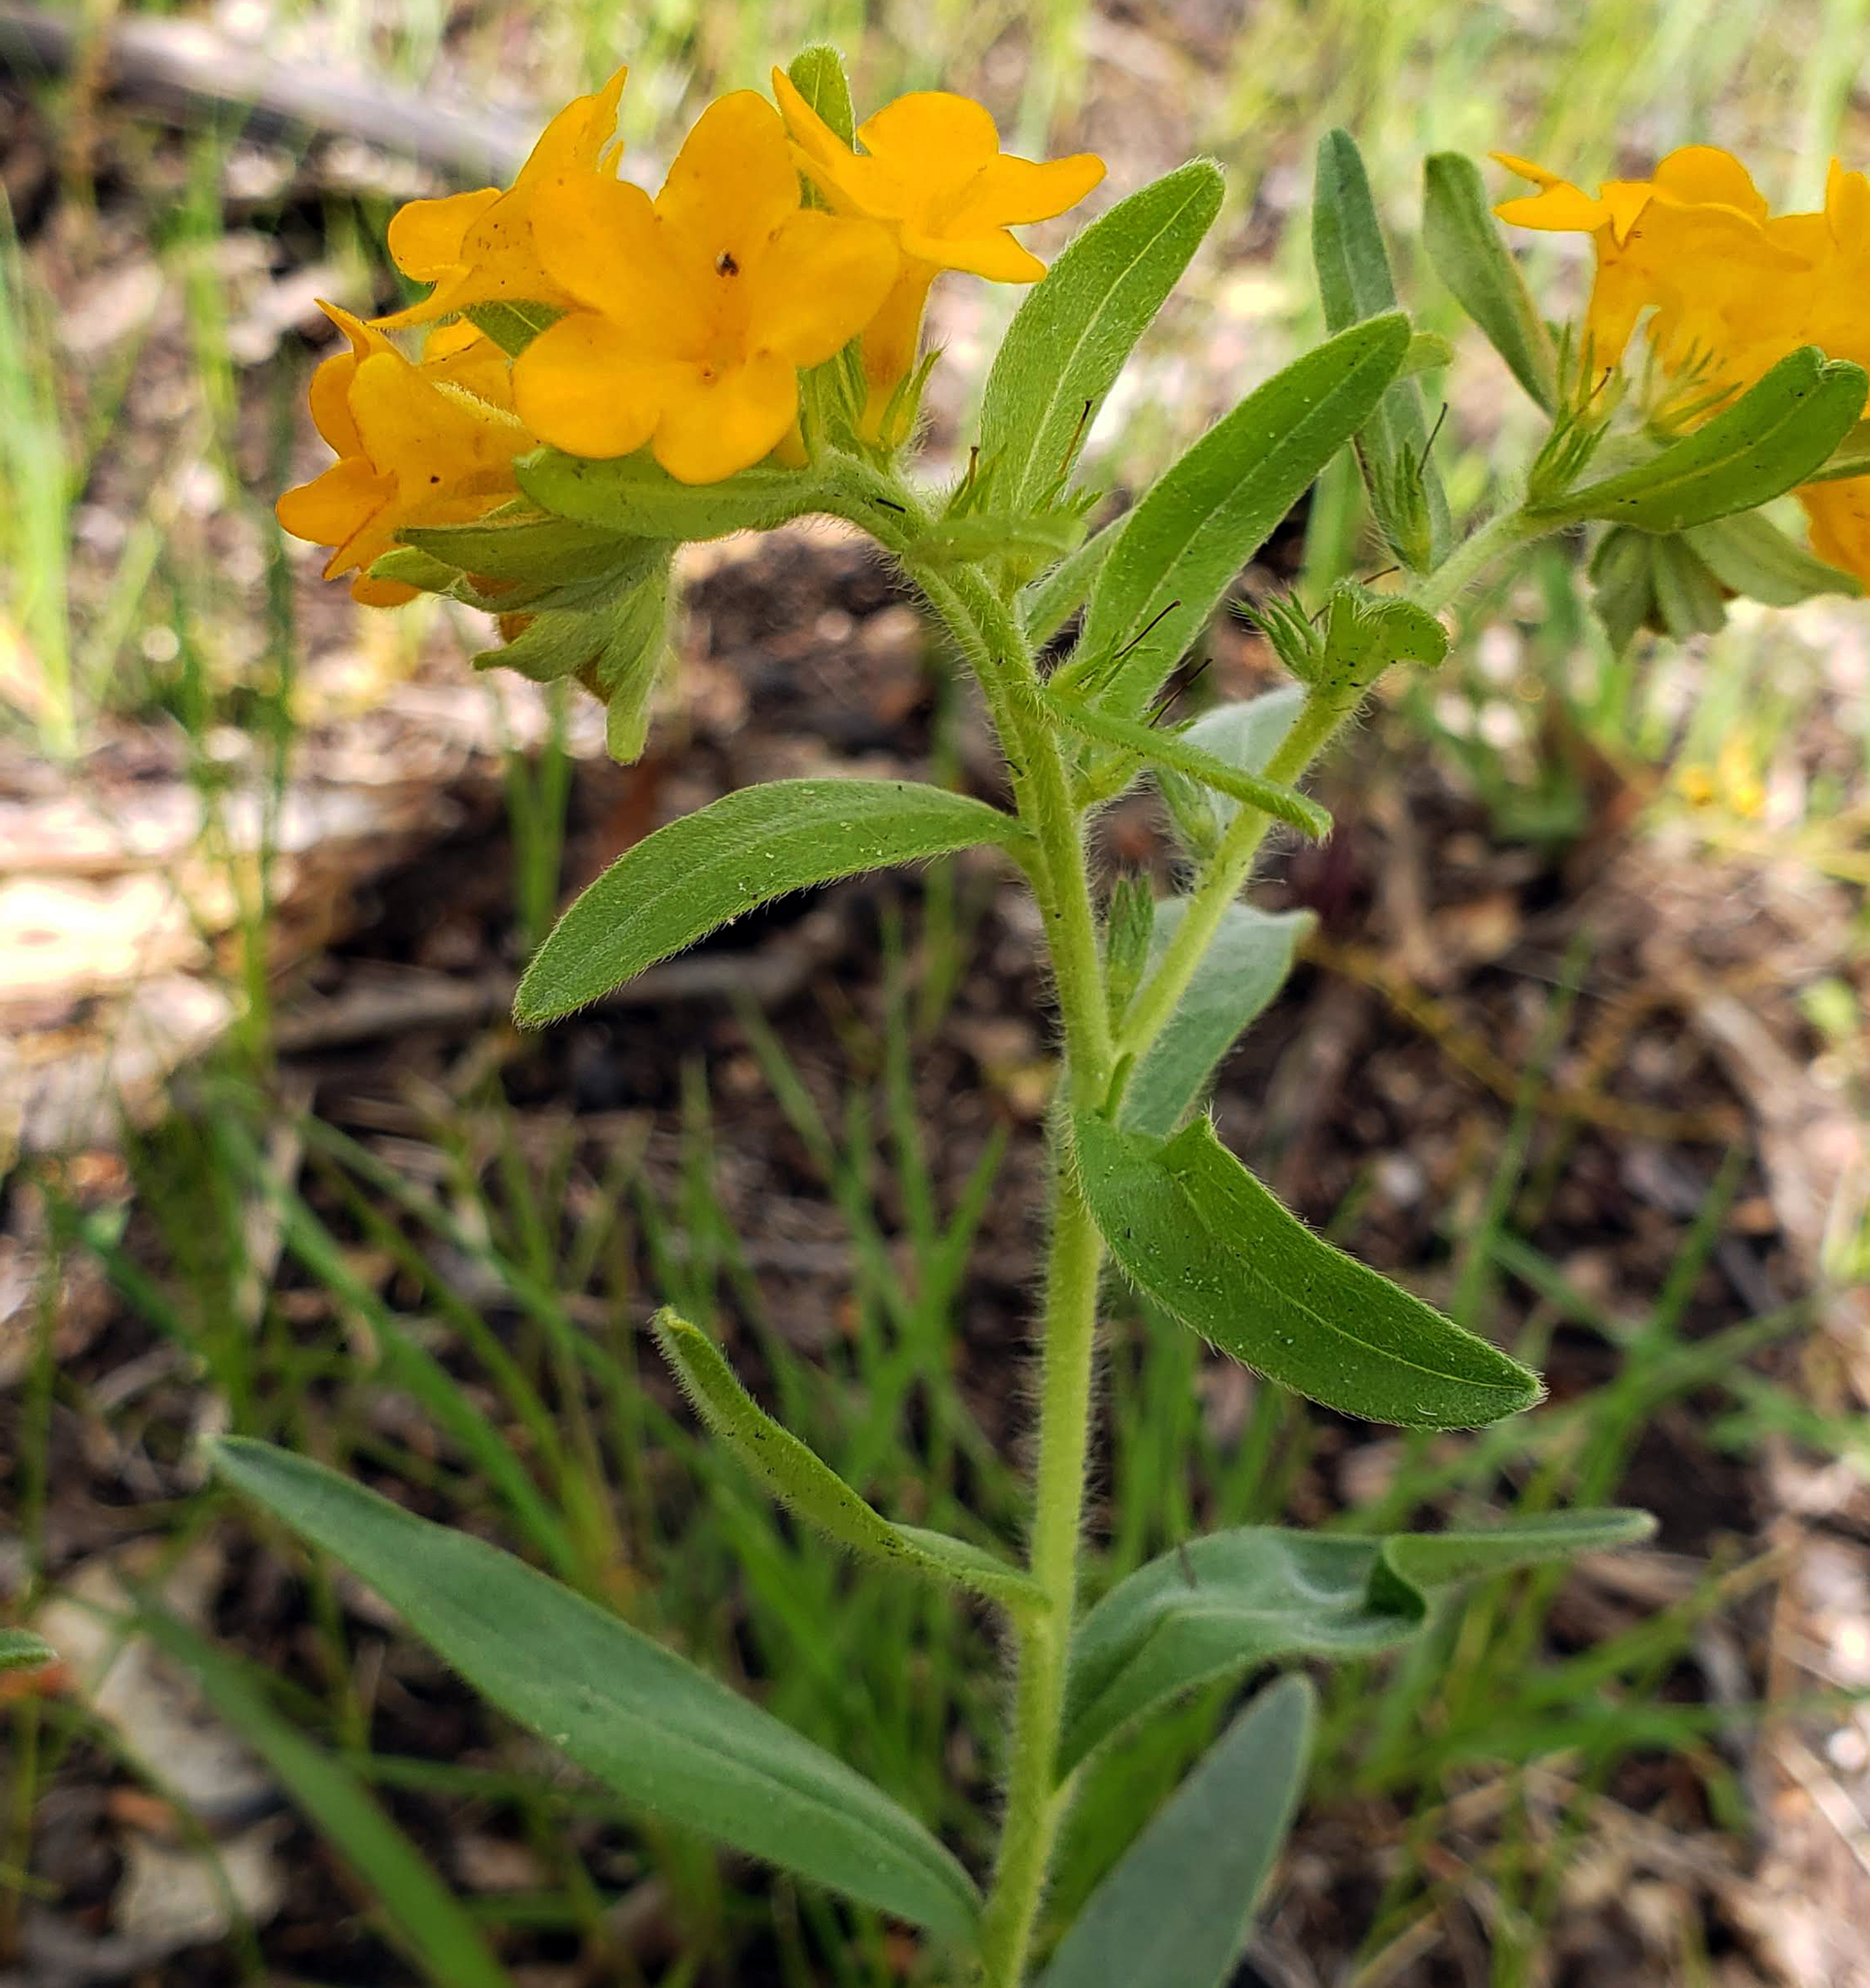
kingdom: Plantae
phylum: Tracheophyta
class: Magnoliopsida
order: Boraginales
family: Boraginaceae
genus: Lithospermum
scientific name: Lithospermum canescens
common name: Hoary puccoon
